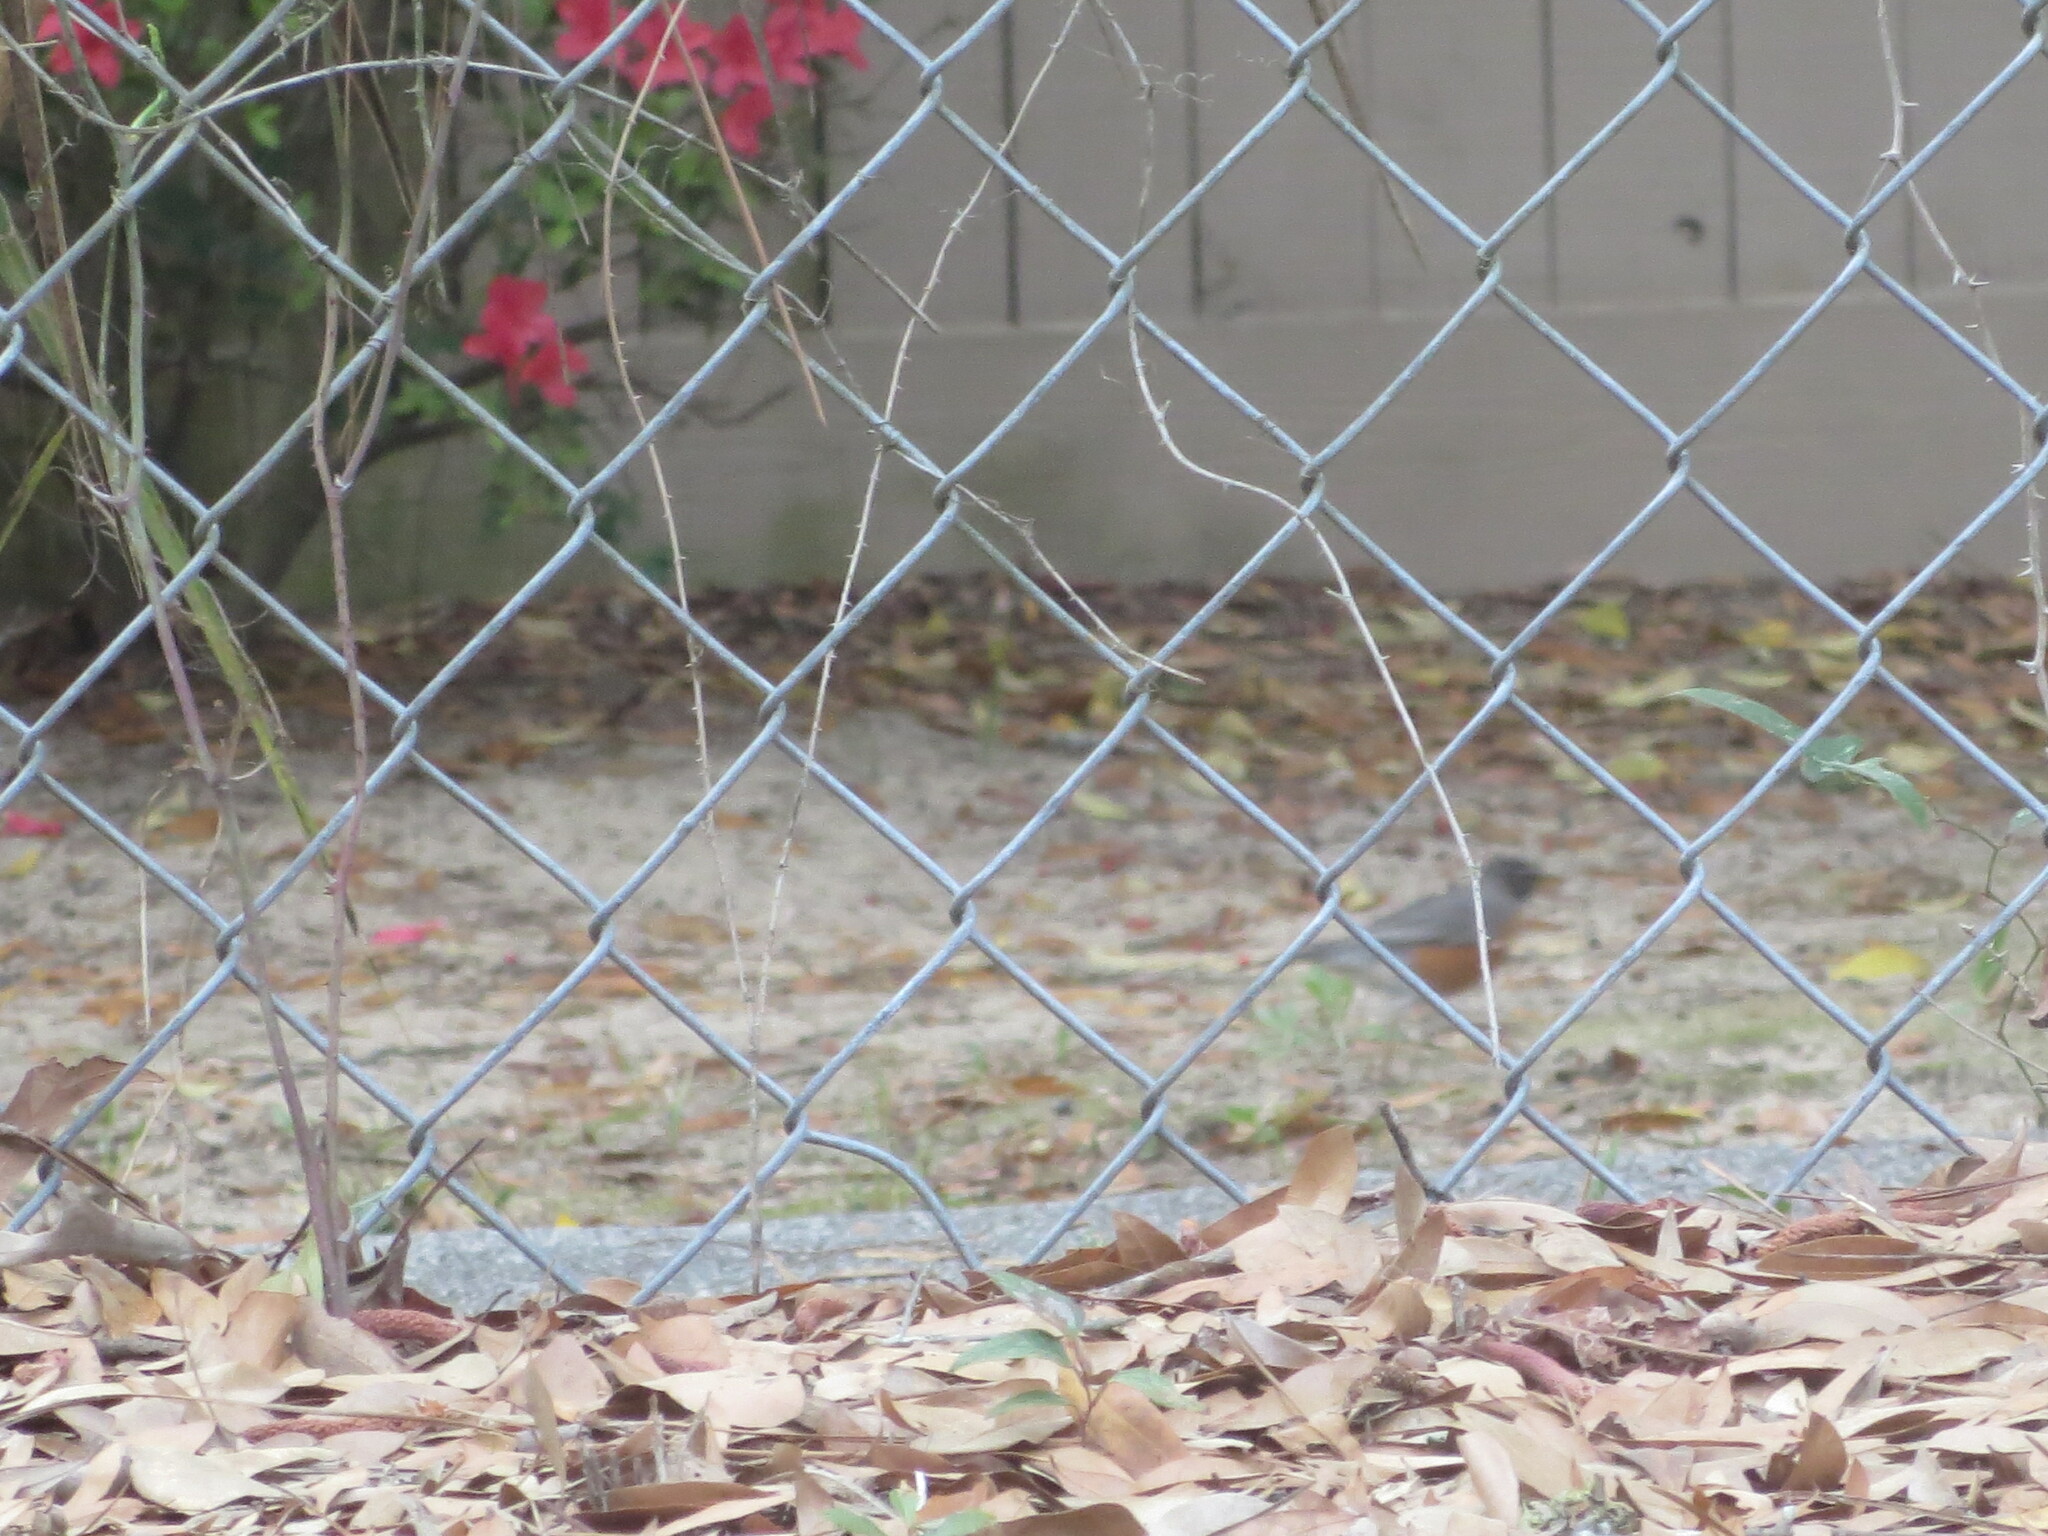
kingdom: Animalia
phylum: Chordata
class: Aves
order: Passeriformes
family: Turdidae
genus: Turdus
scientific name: Turdus migratorius
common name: American robin
